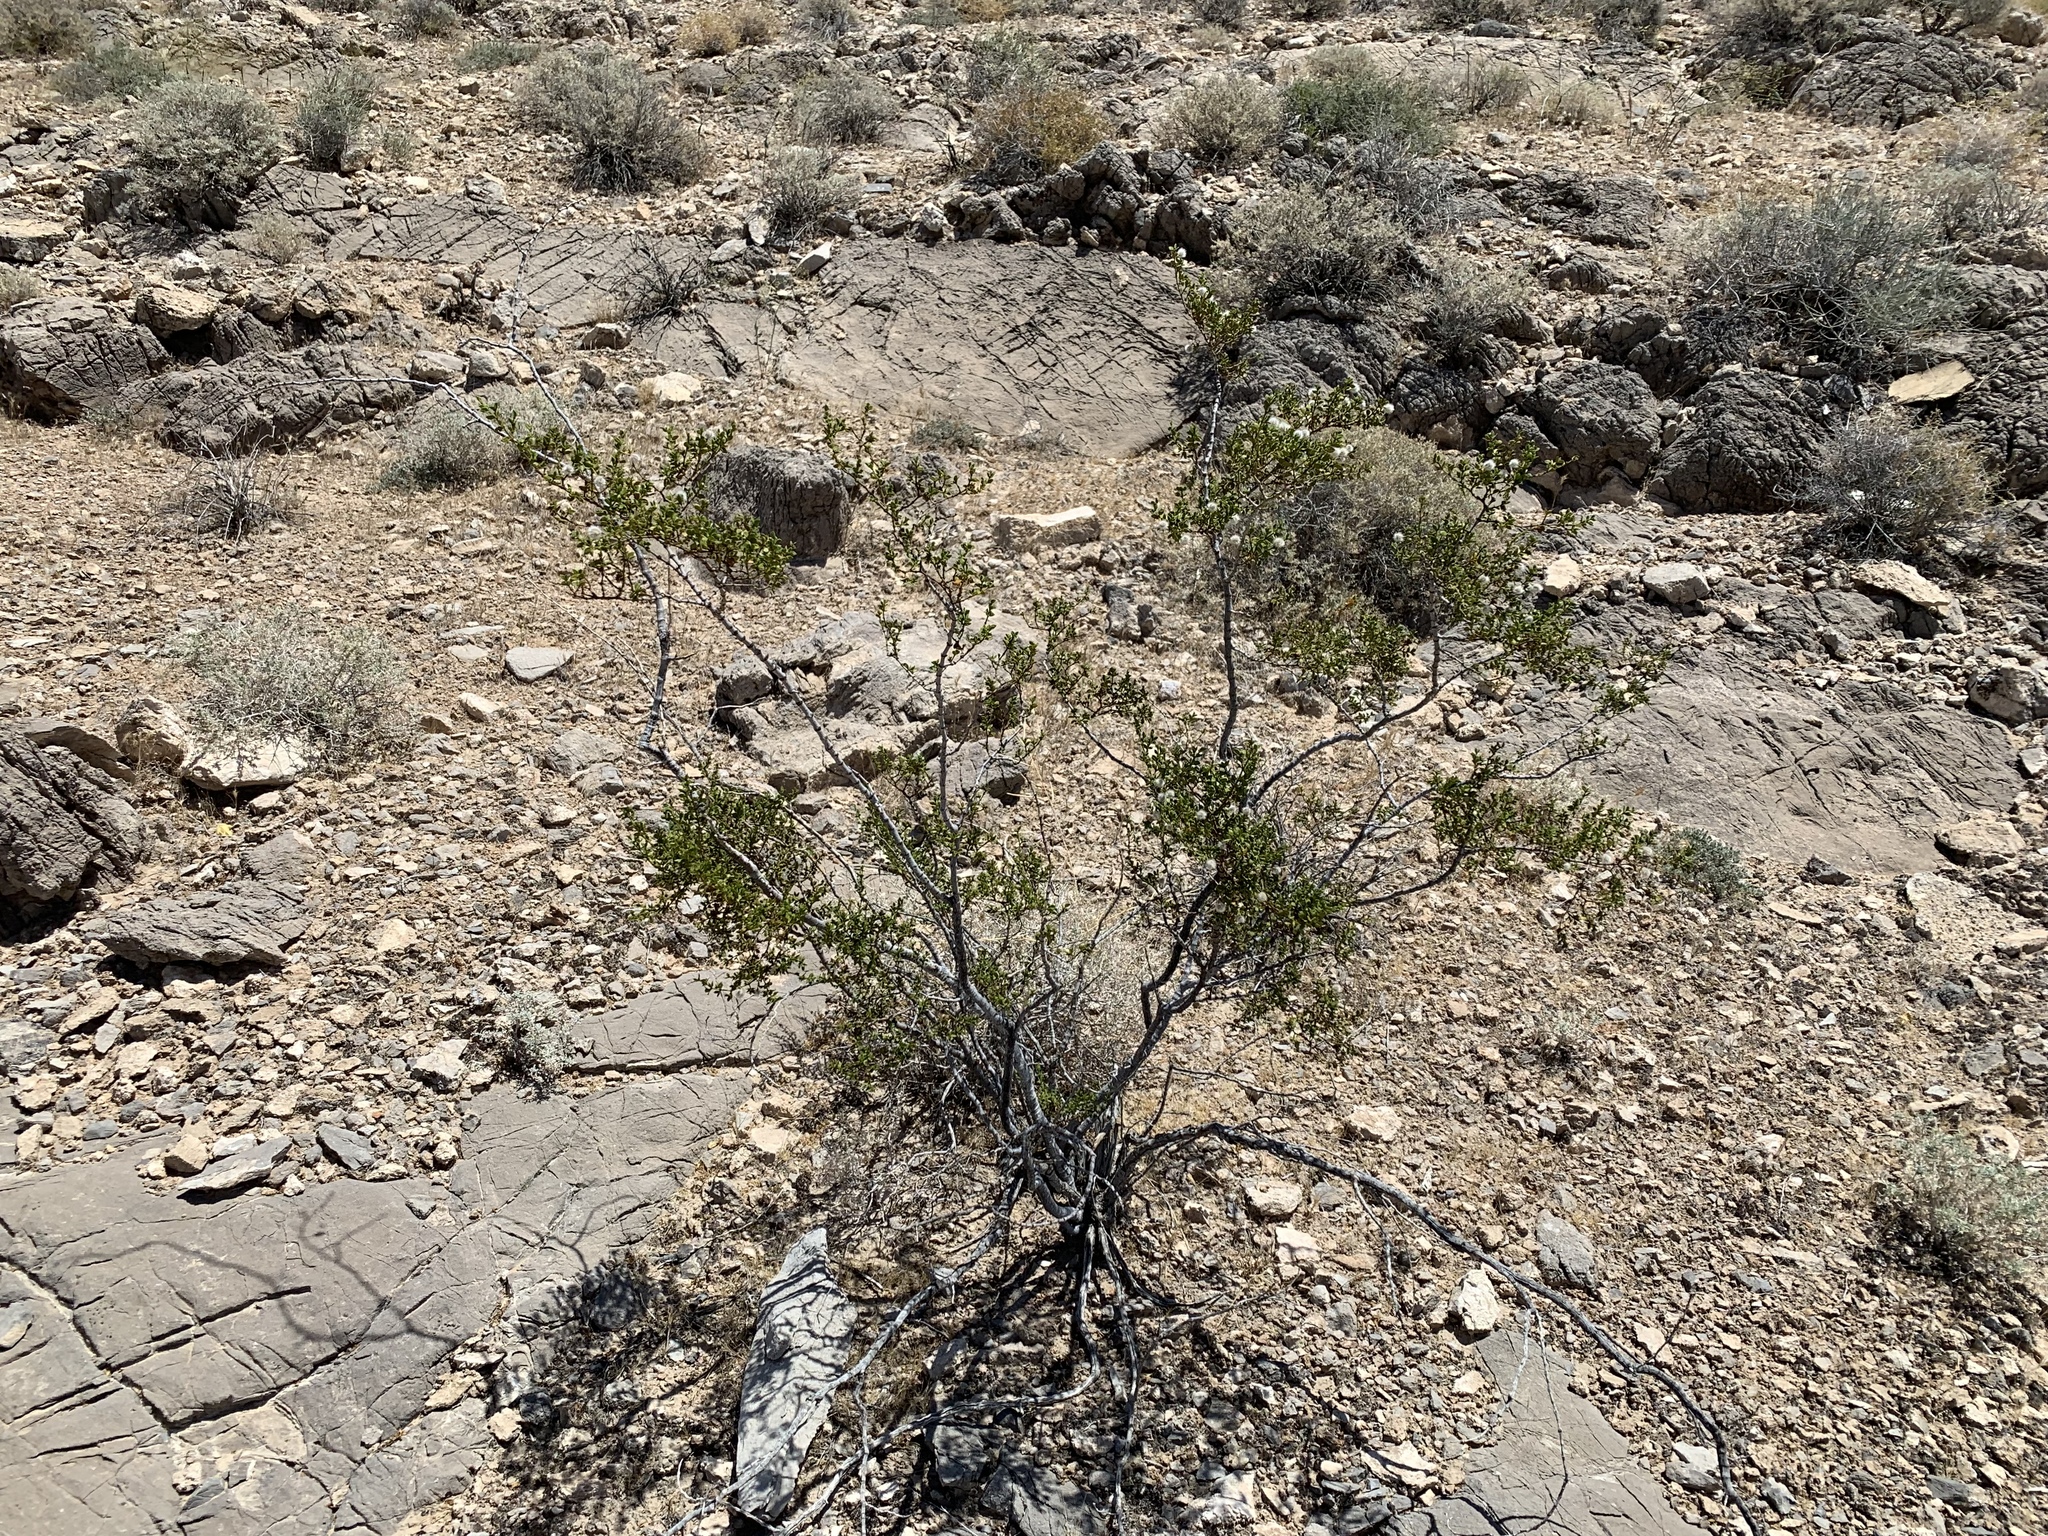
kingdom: Plantae
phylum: Tracheophyta
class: Magnoliopsida
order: Zygophyllales
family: Zygophyllaceae
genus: Larrea
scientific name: Larrea tridentata
